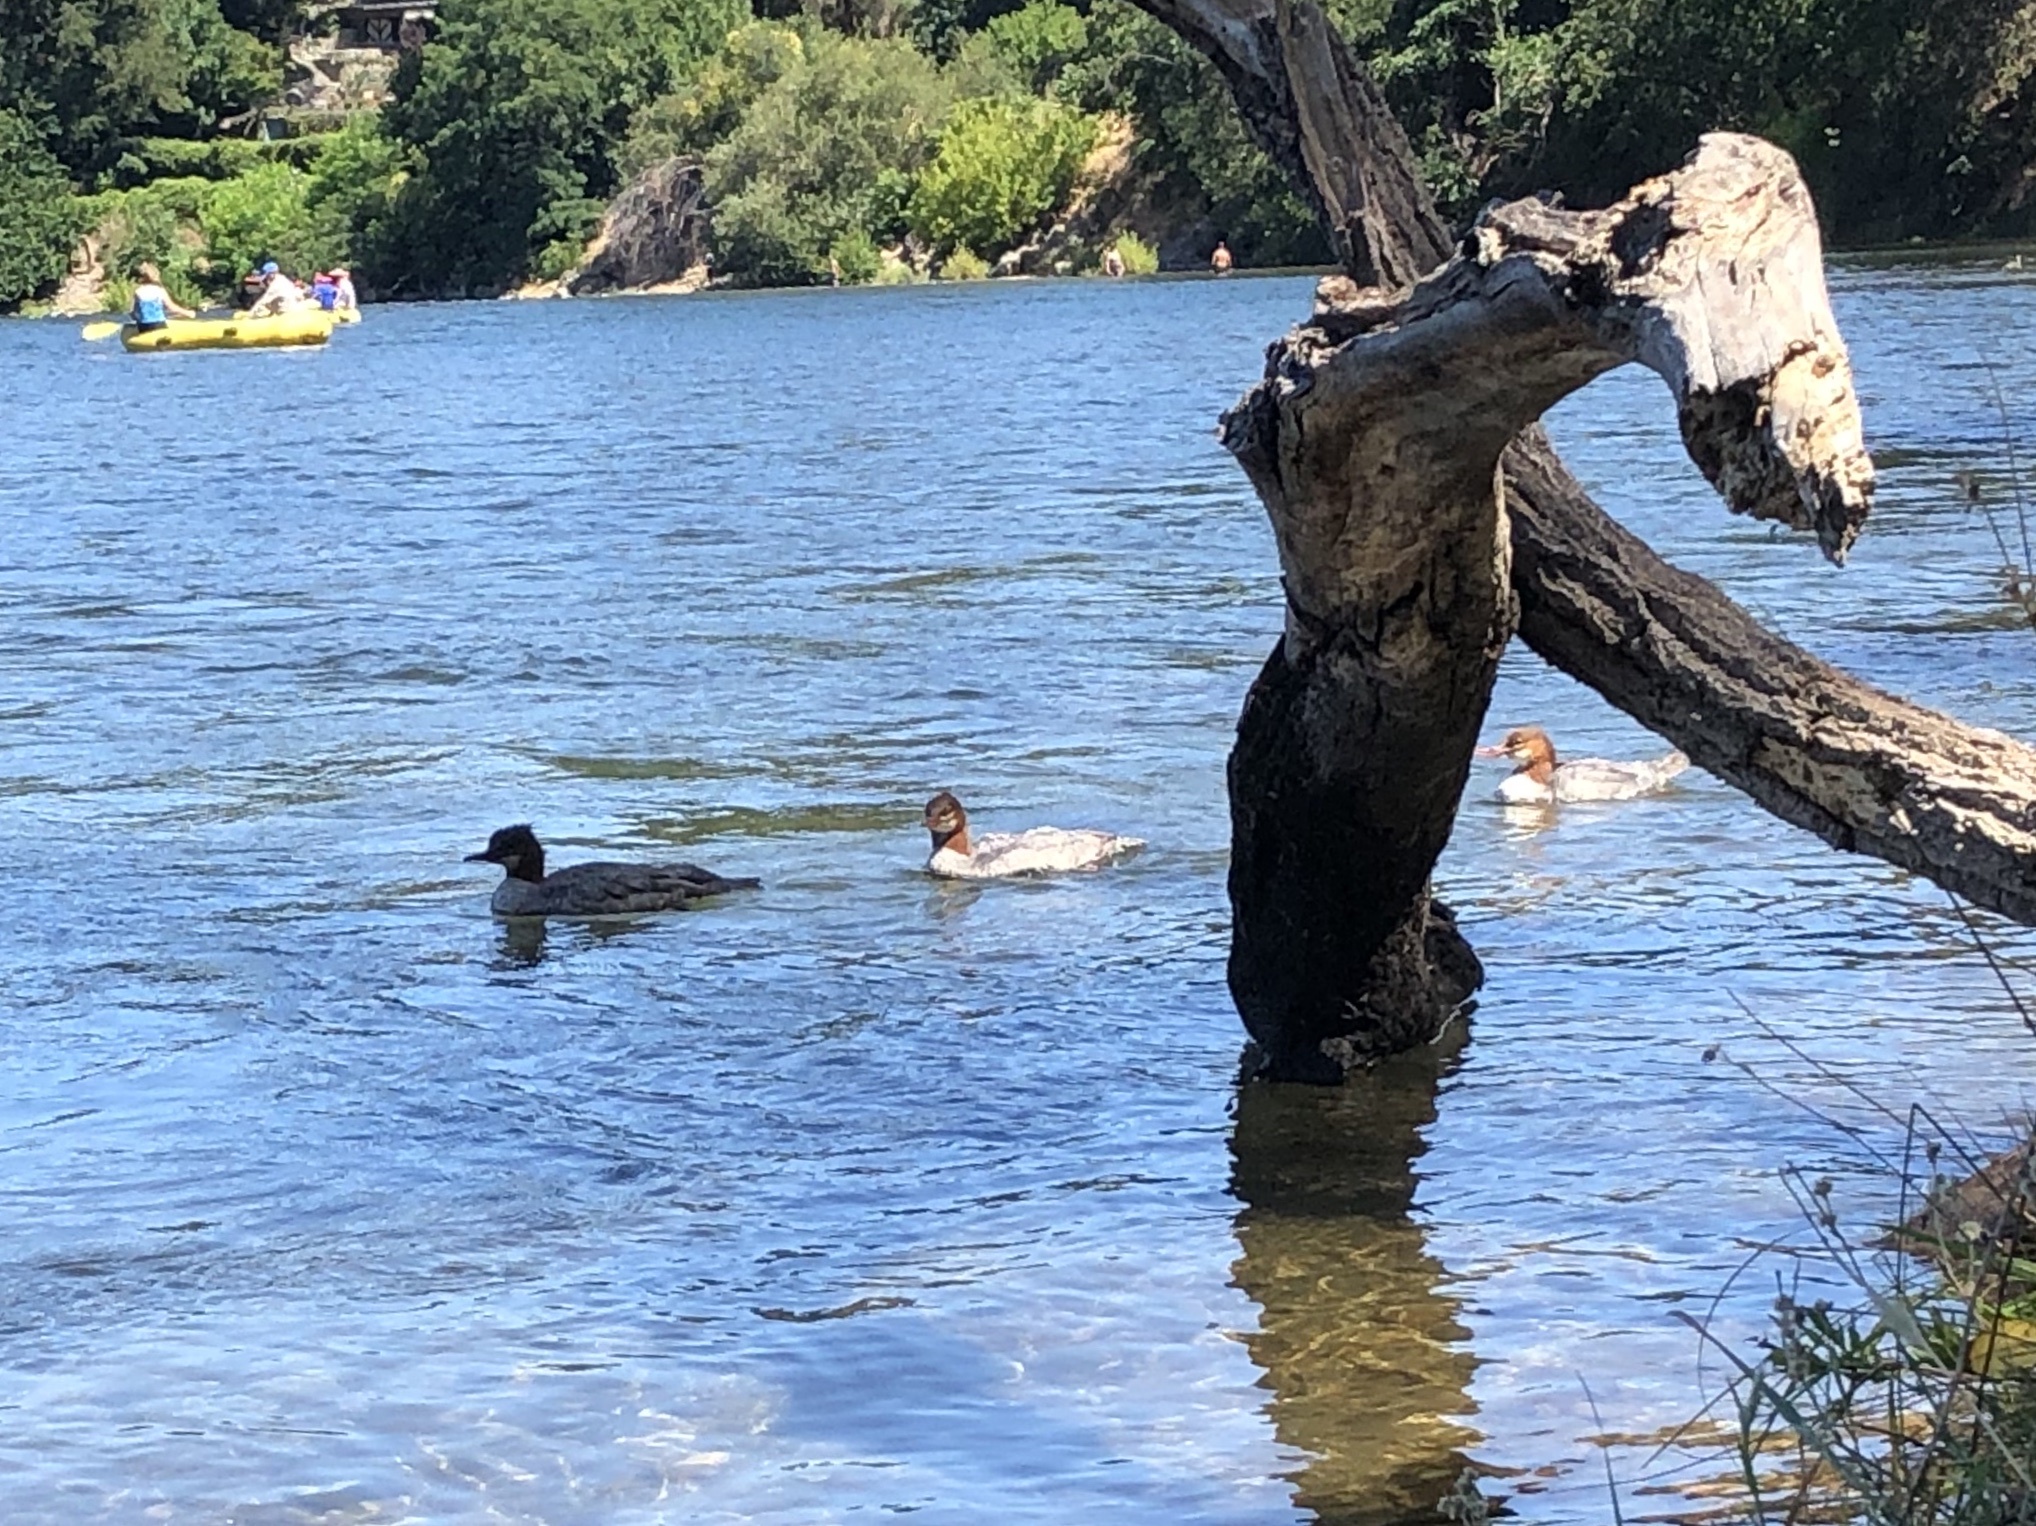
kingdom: Animalia
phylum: Chordata
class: Aves
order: Anseriformes
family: Anatidae
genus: Mergus
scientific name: Mergus merganser
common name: Common merganser
